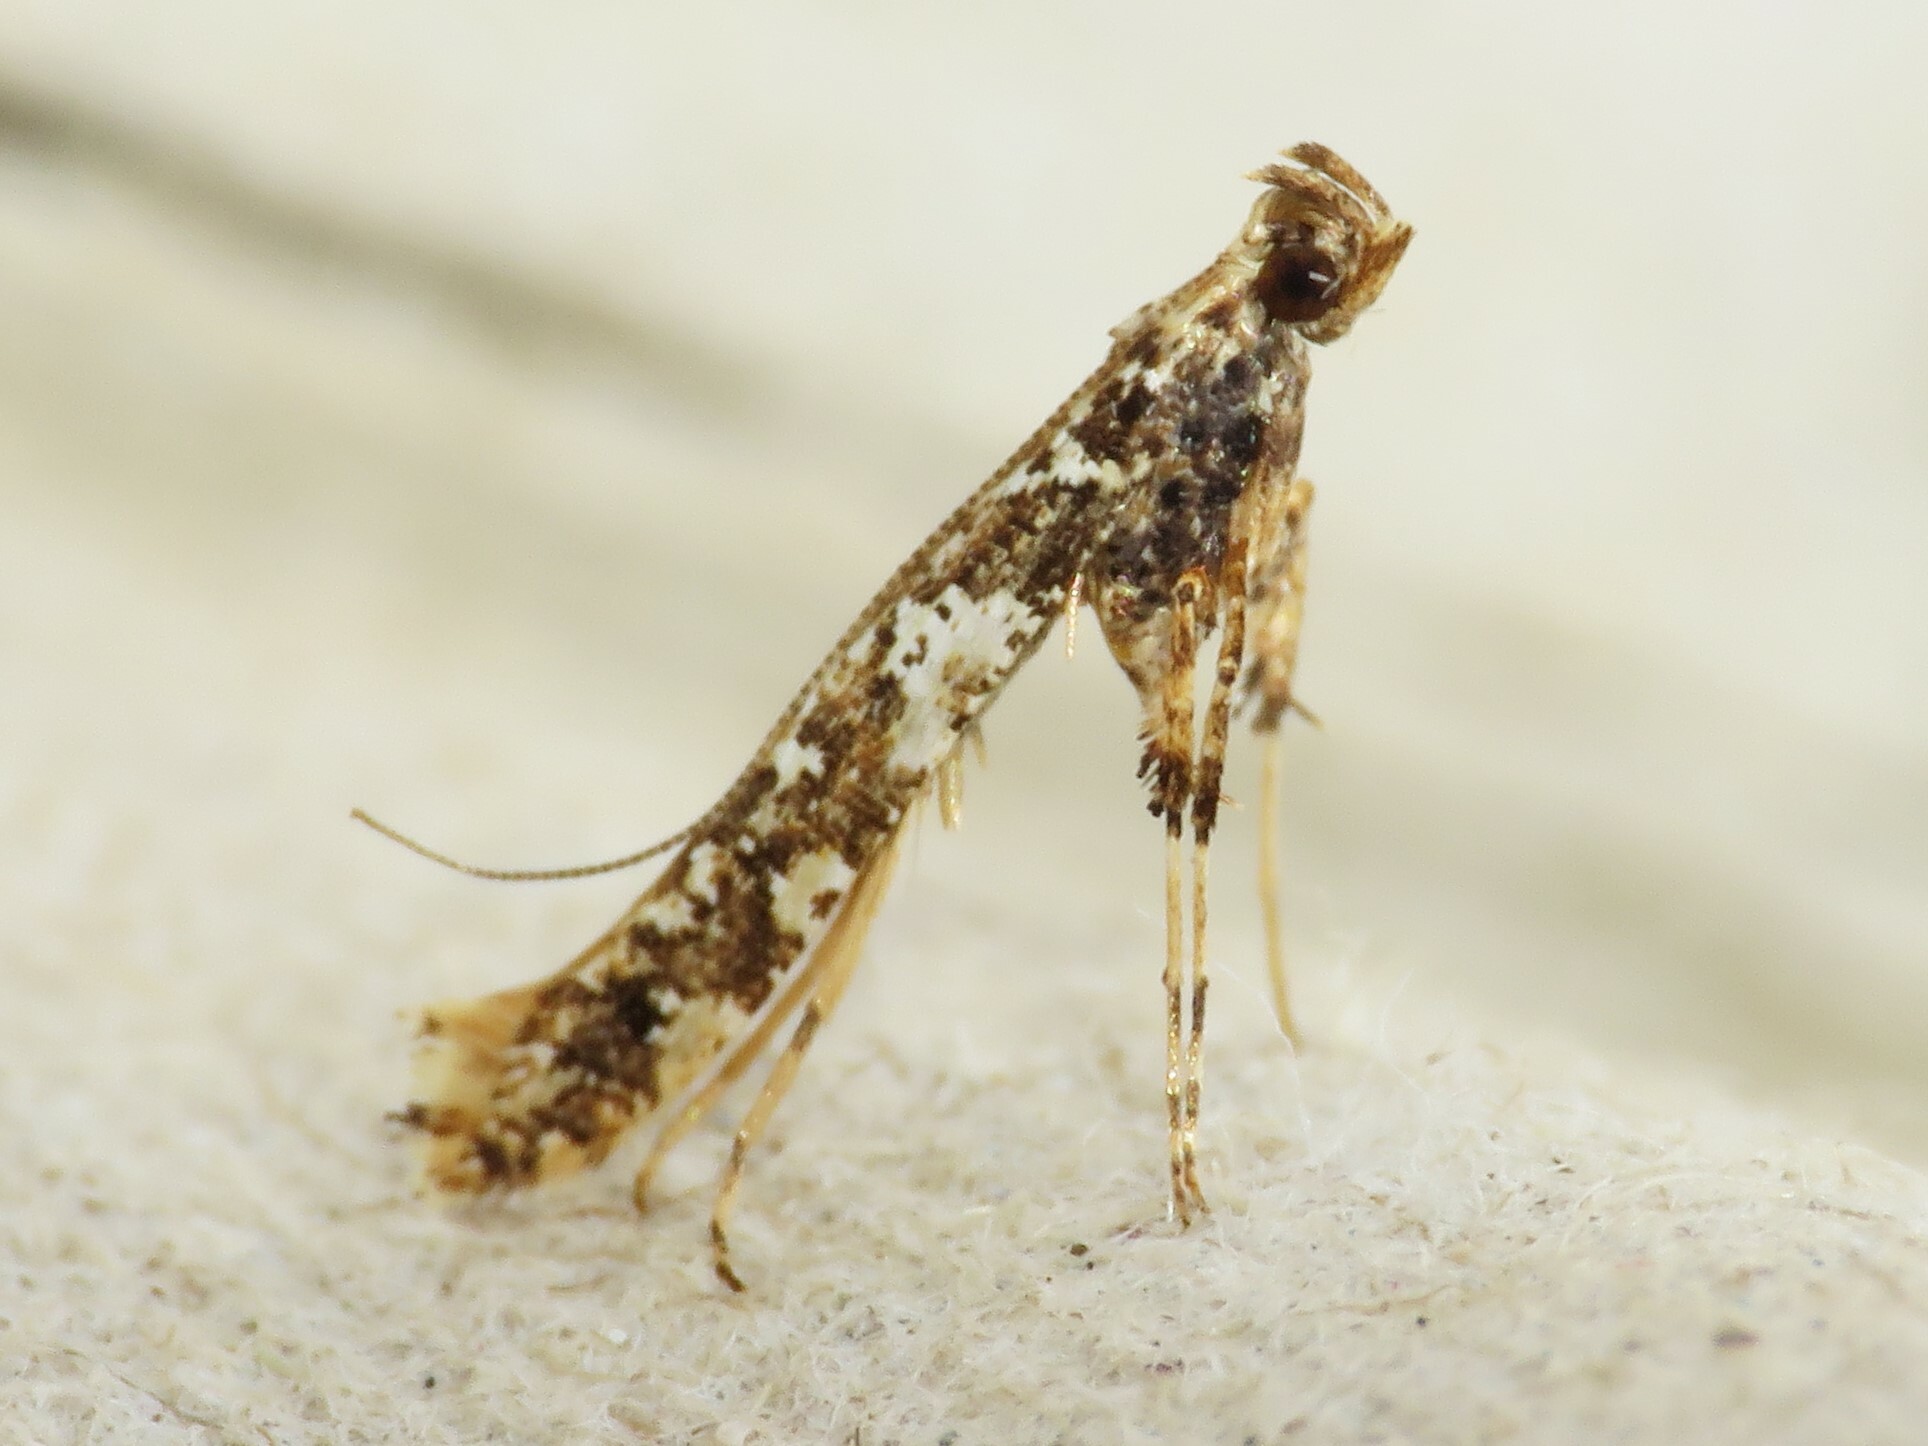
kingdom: Animalia
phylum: Arthropoda
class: Insecta
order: Lepidoptera
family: Gracillariidae
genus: Caloptilia
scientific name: Caloptilia serotinella
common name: Cherry leafroller moth
